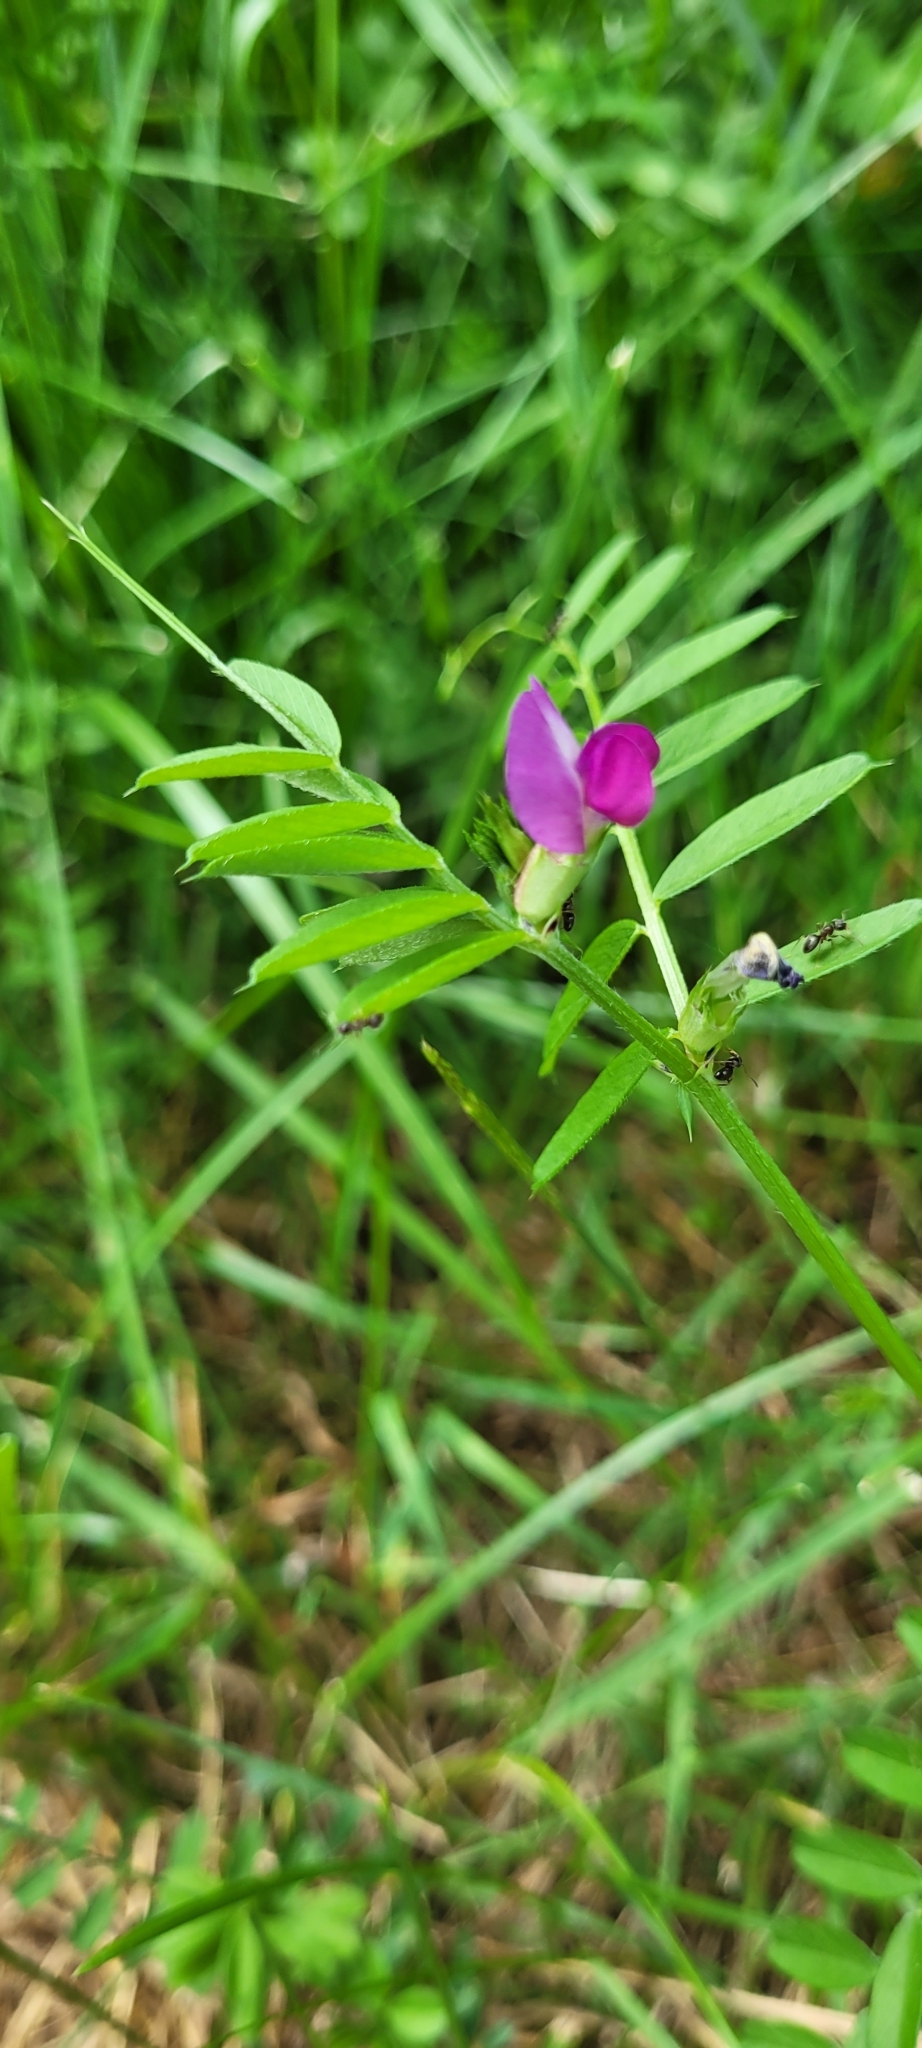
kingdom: Plantae
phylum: Tracheophyta
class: Magnoliopsida
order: Fabales
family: Fabaceae
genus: Vicia
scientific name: Vicia sativa
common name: Garden vetch
